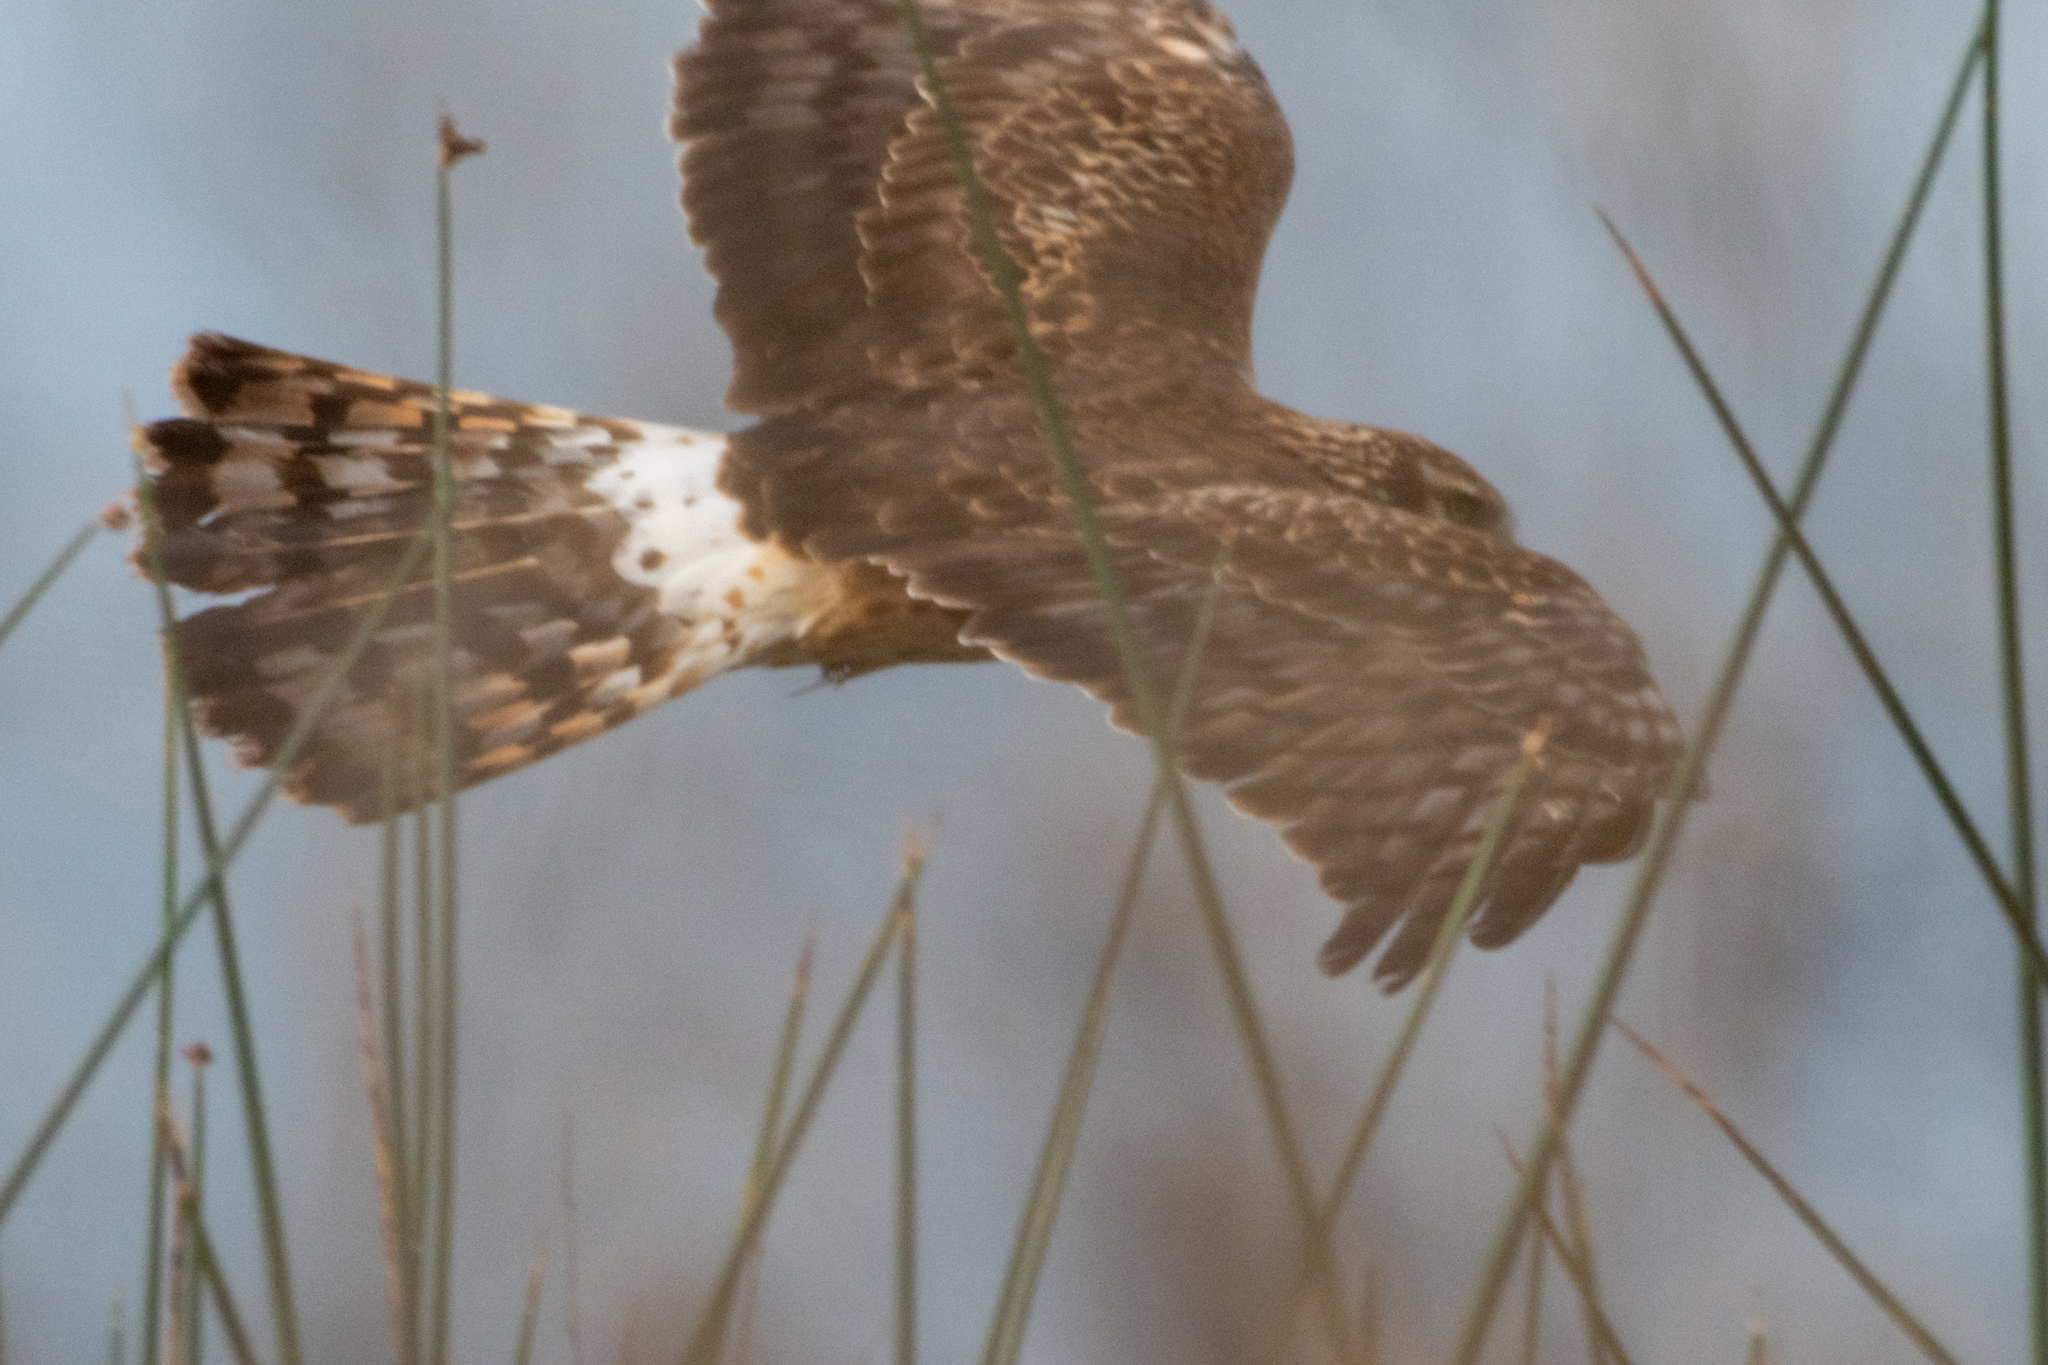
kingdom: Animalia
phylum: Chordata
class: Aves
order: Accipitriformes
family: Accipitridae
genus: Circus
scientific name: Circus cyaneus
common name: Hen harrier
